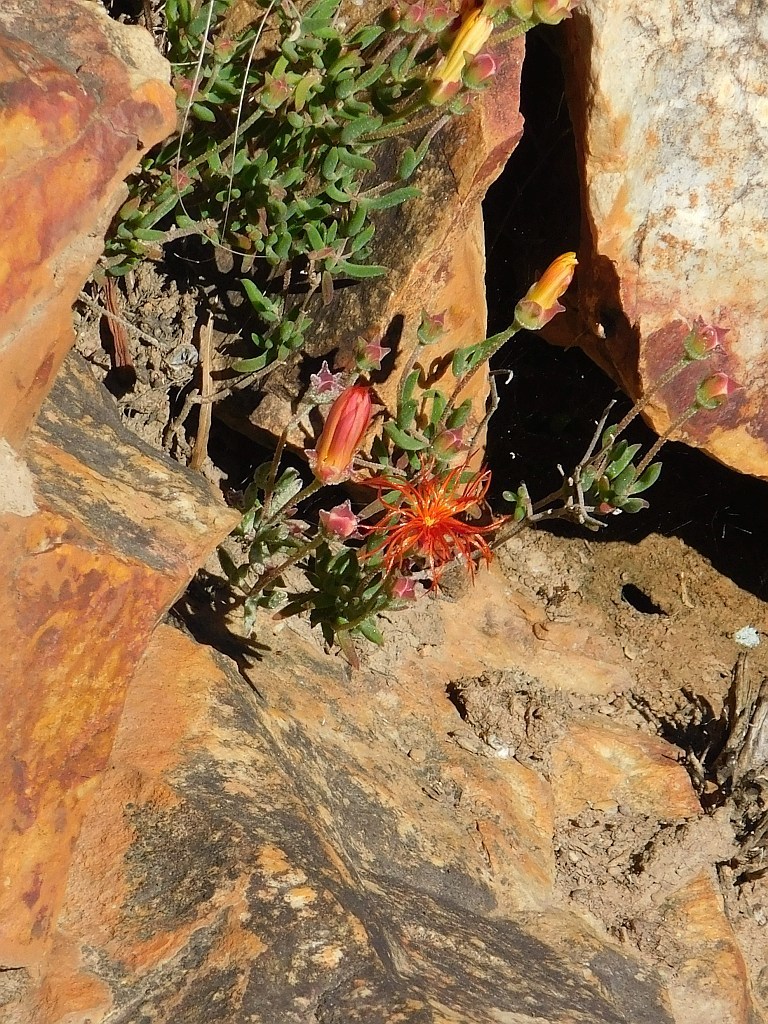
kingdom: Plantae
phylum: Tracheophyta
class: Magnoliopsida
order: Caryophyllales
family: Aizoaceae
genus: Drosanthemum
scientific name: Drosanthemum flavum
